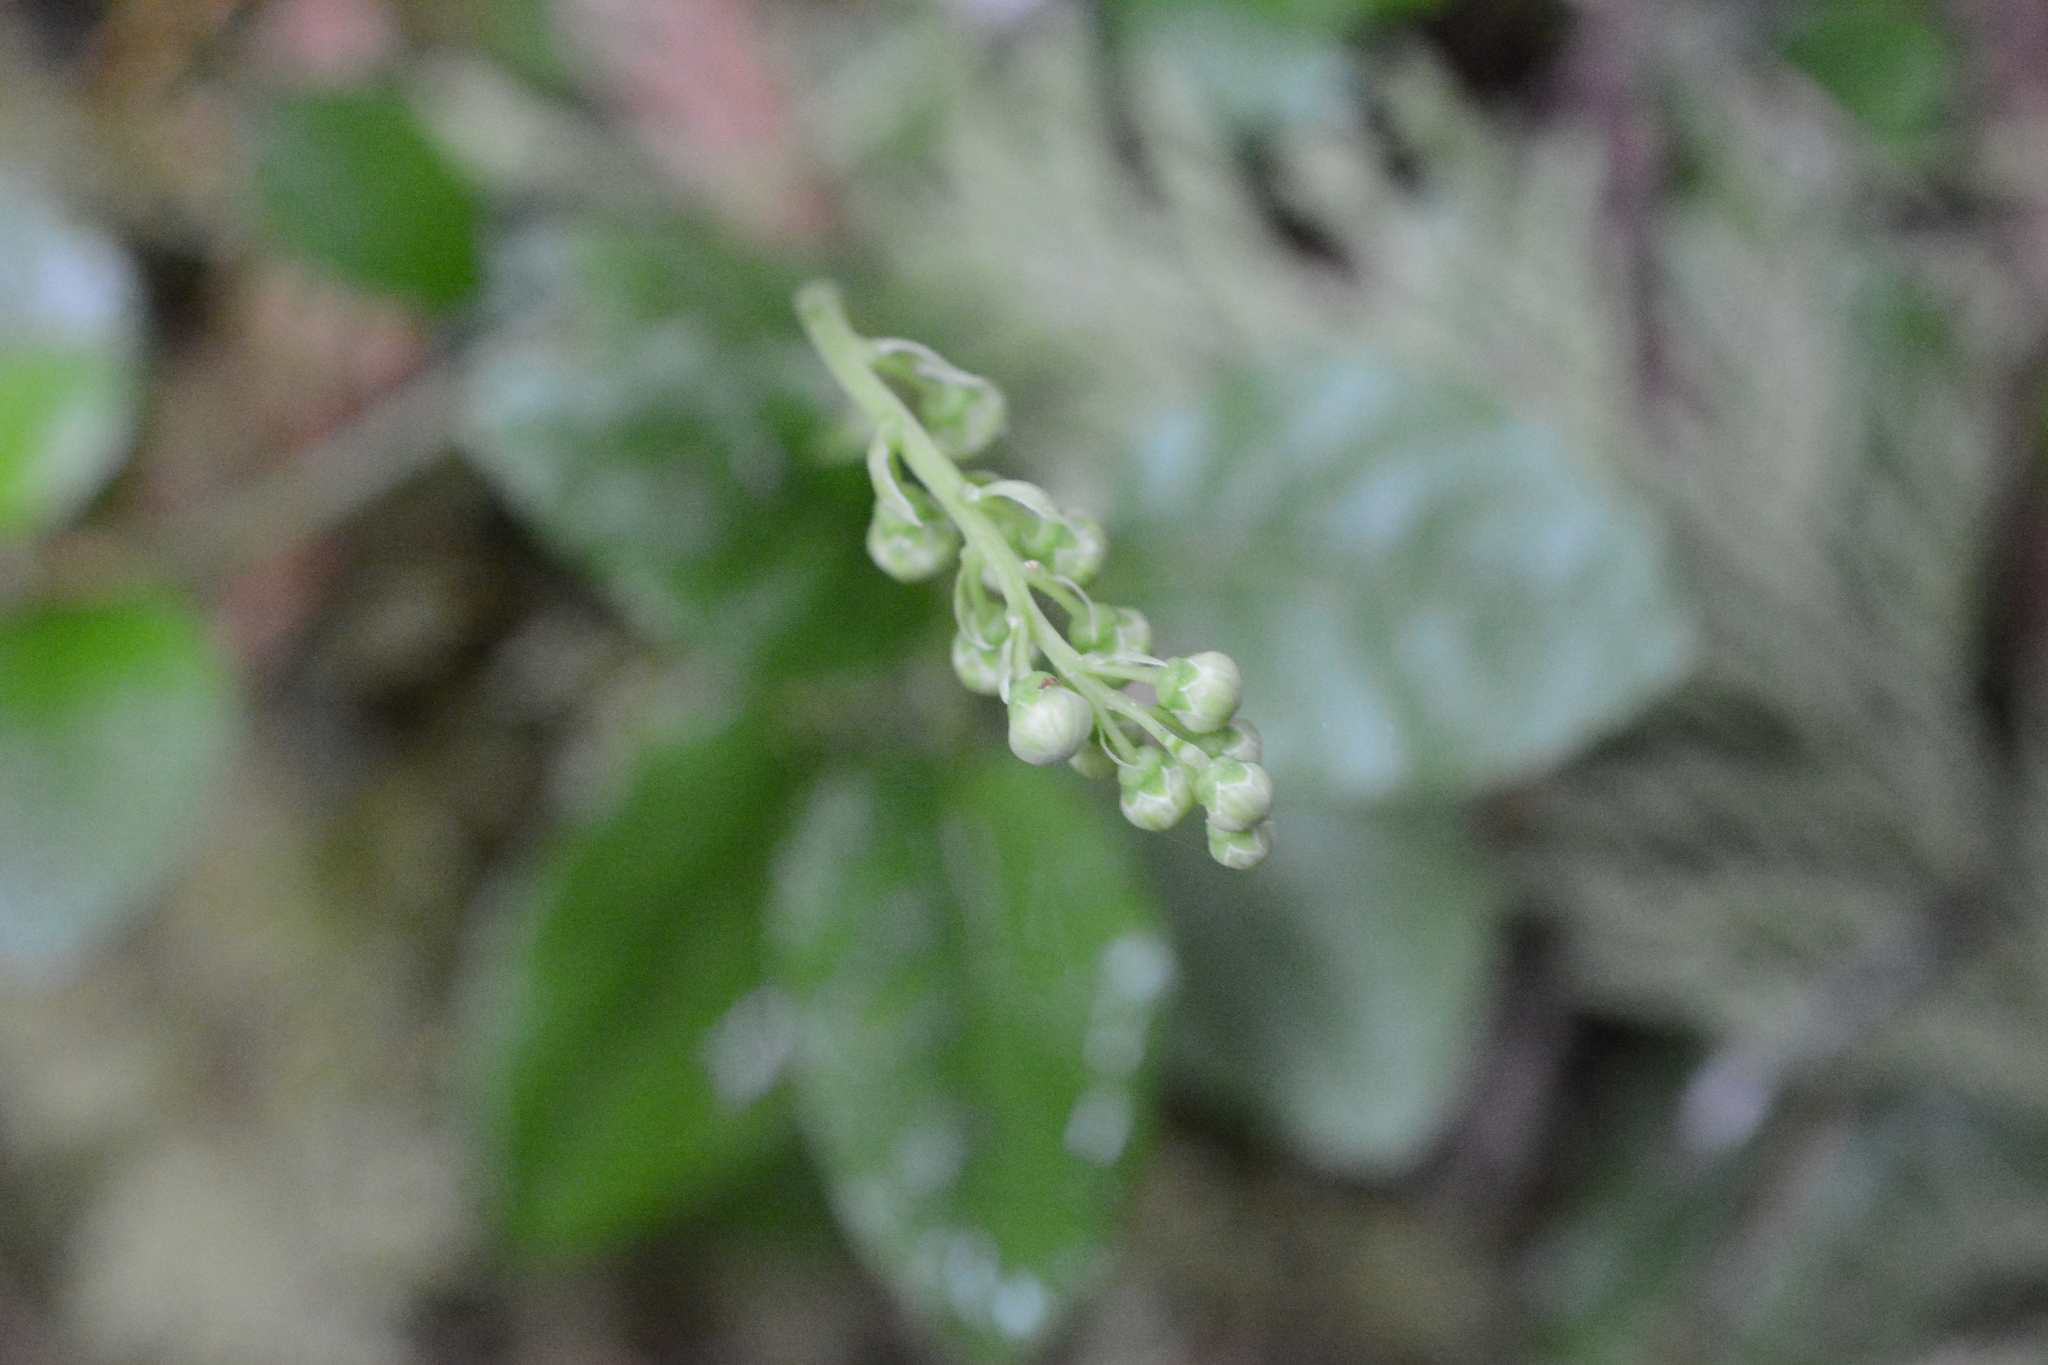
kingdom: Plantae
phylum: Tracheophyta
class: Magnoliopsida
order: Ericales
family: Ericaceae
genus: Orthilia
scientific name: Orthilia secunda
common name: One-sided orthilia
